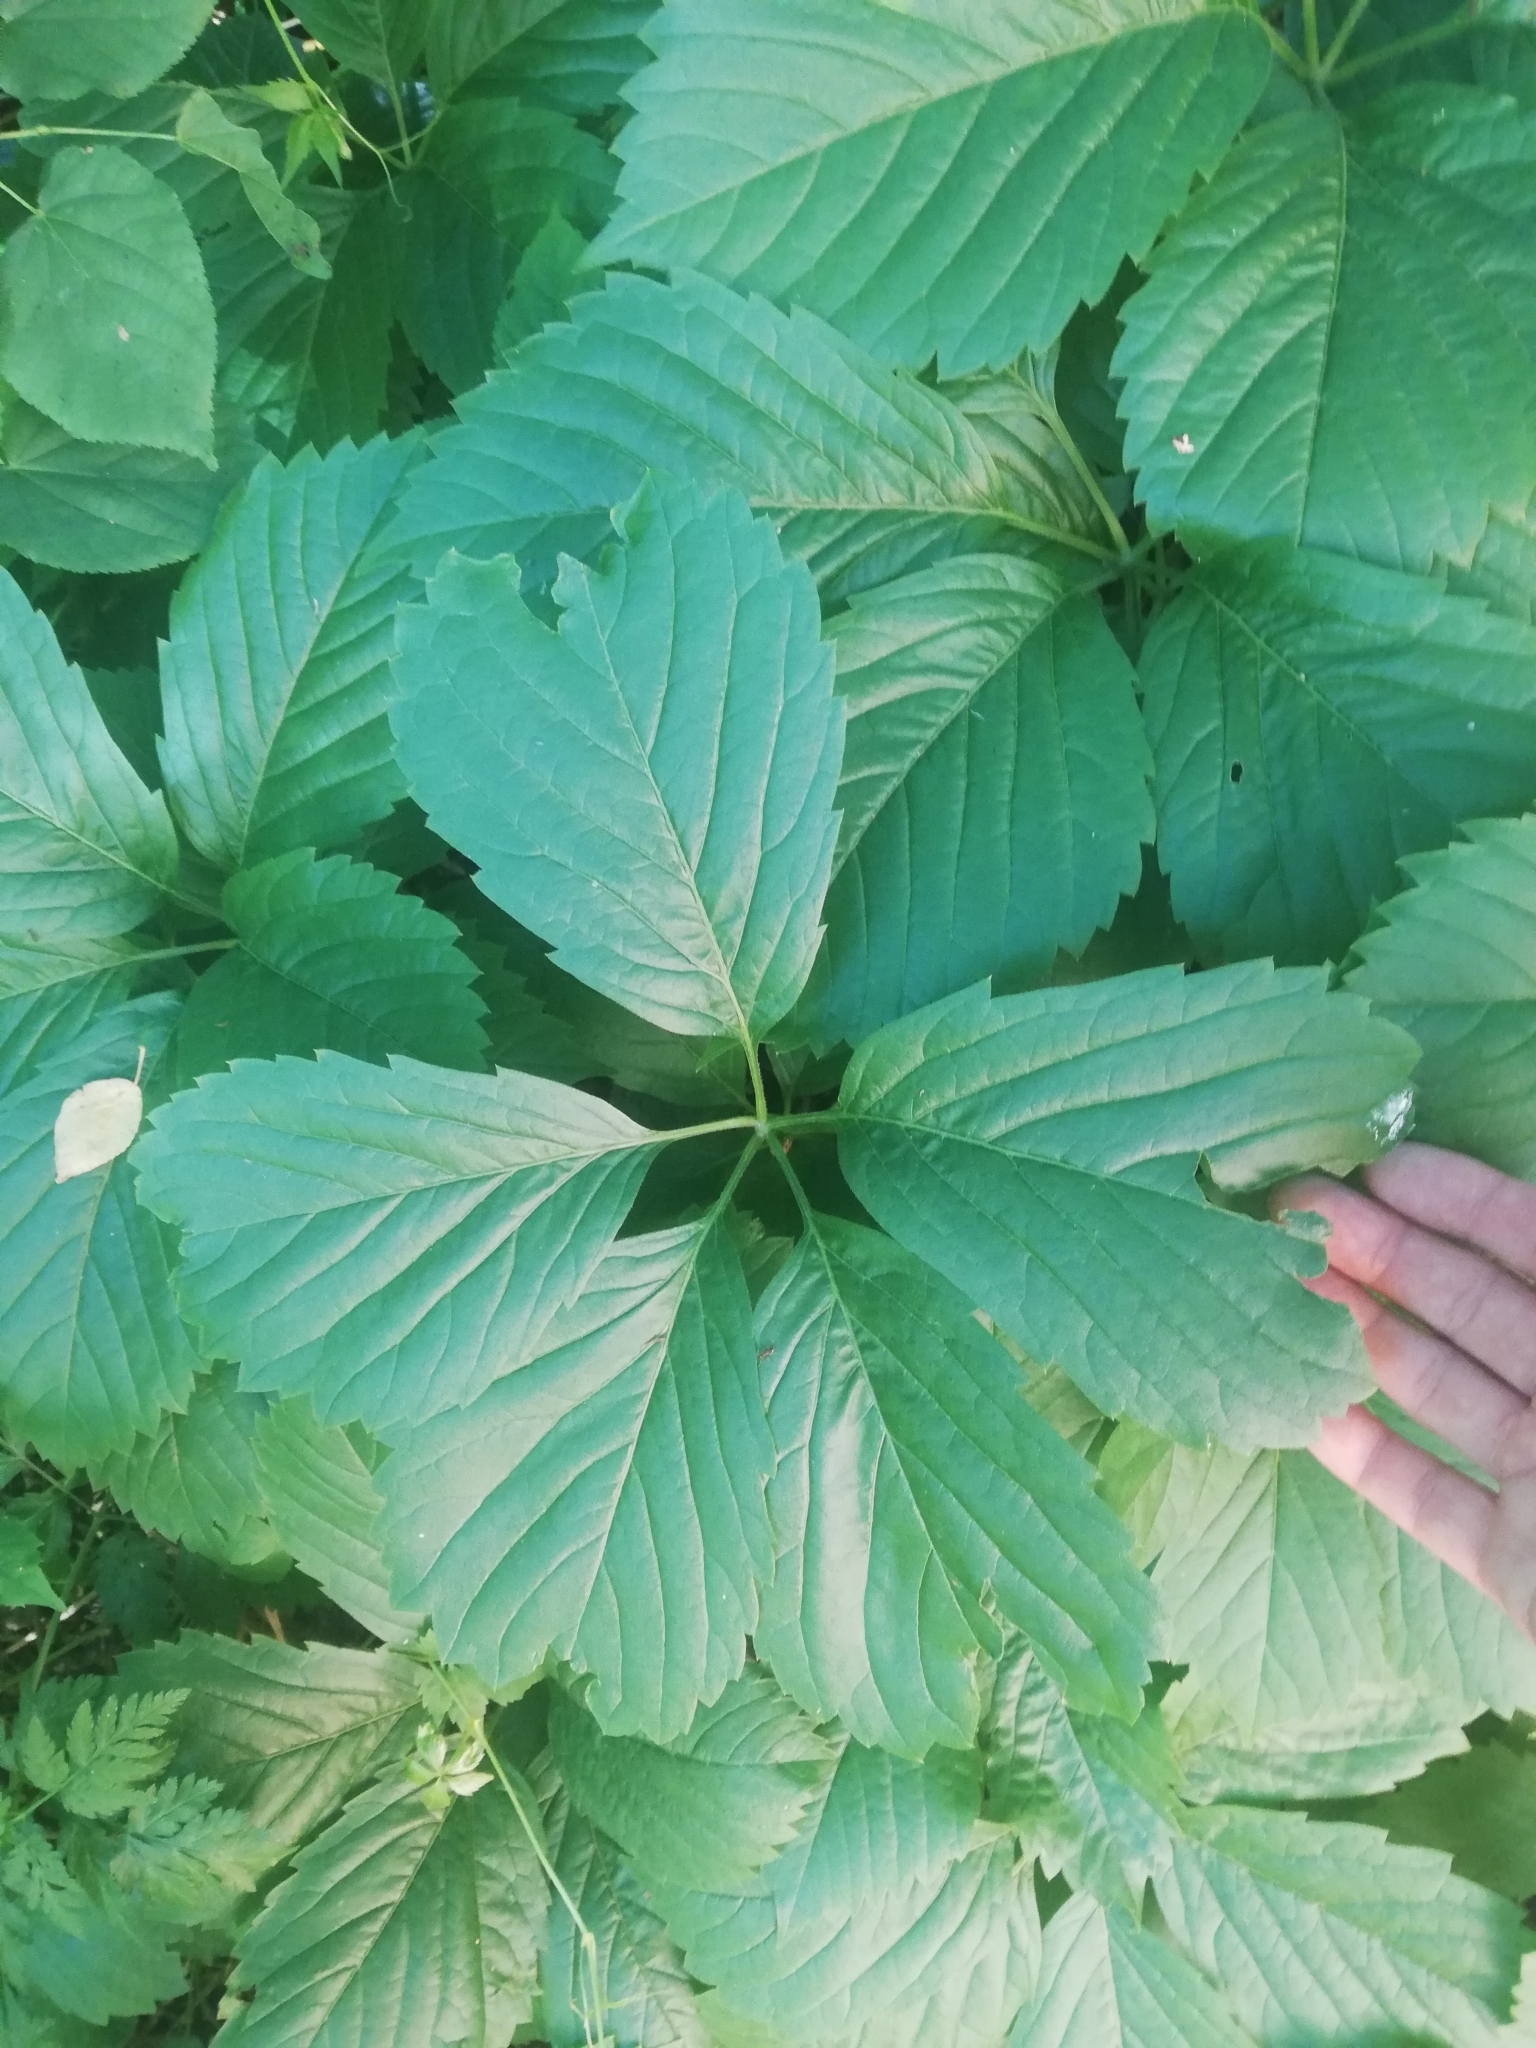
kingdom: Plantae
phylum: Tracheophyta
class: Magnoliopsida
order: Vitales
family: Vitaceae
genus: Parthenocissus
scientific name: Parthenocissus inserta
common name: False virginia-creeper
